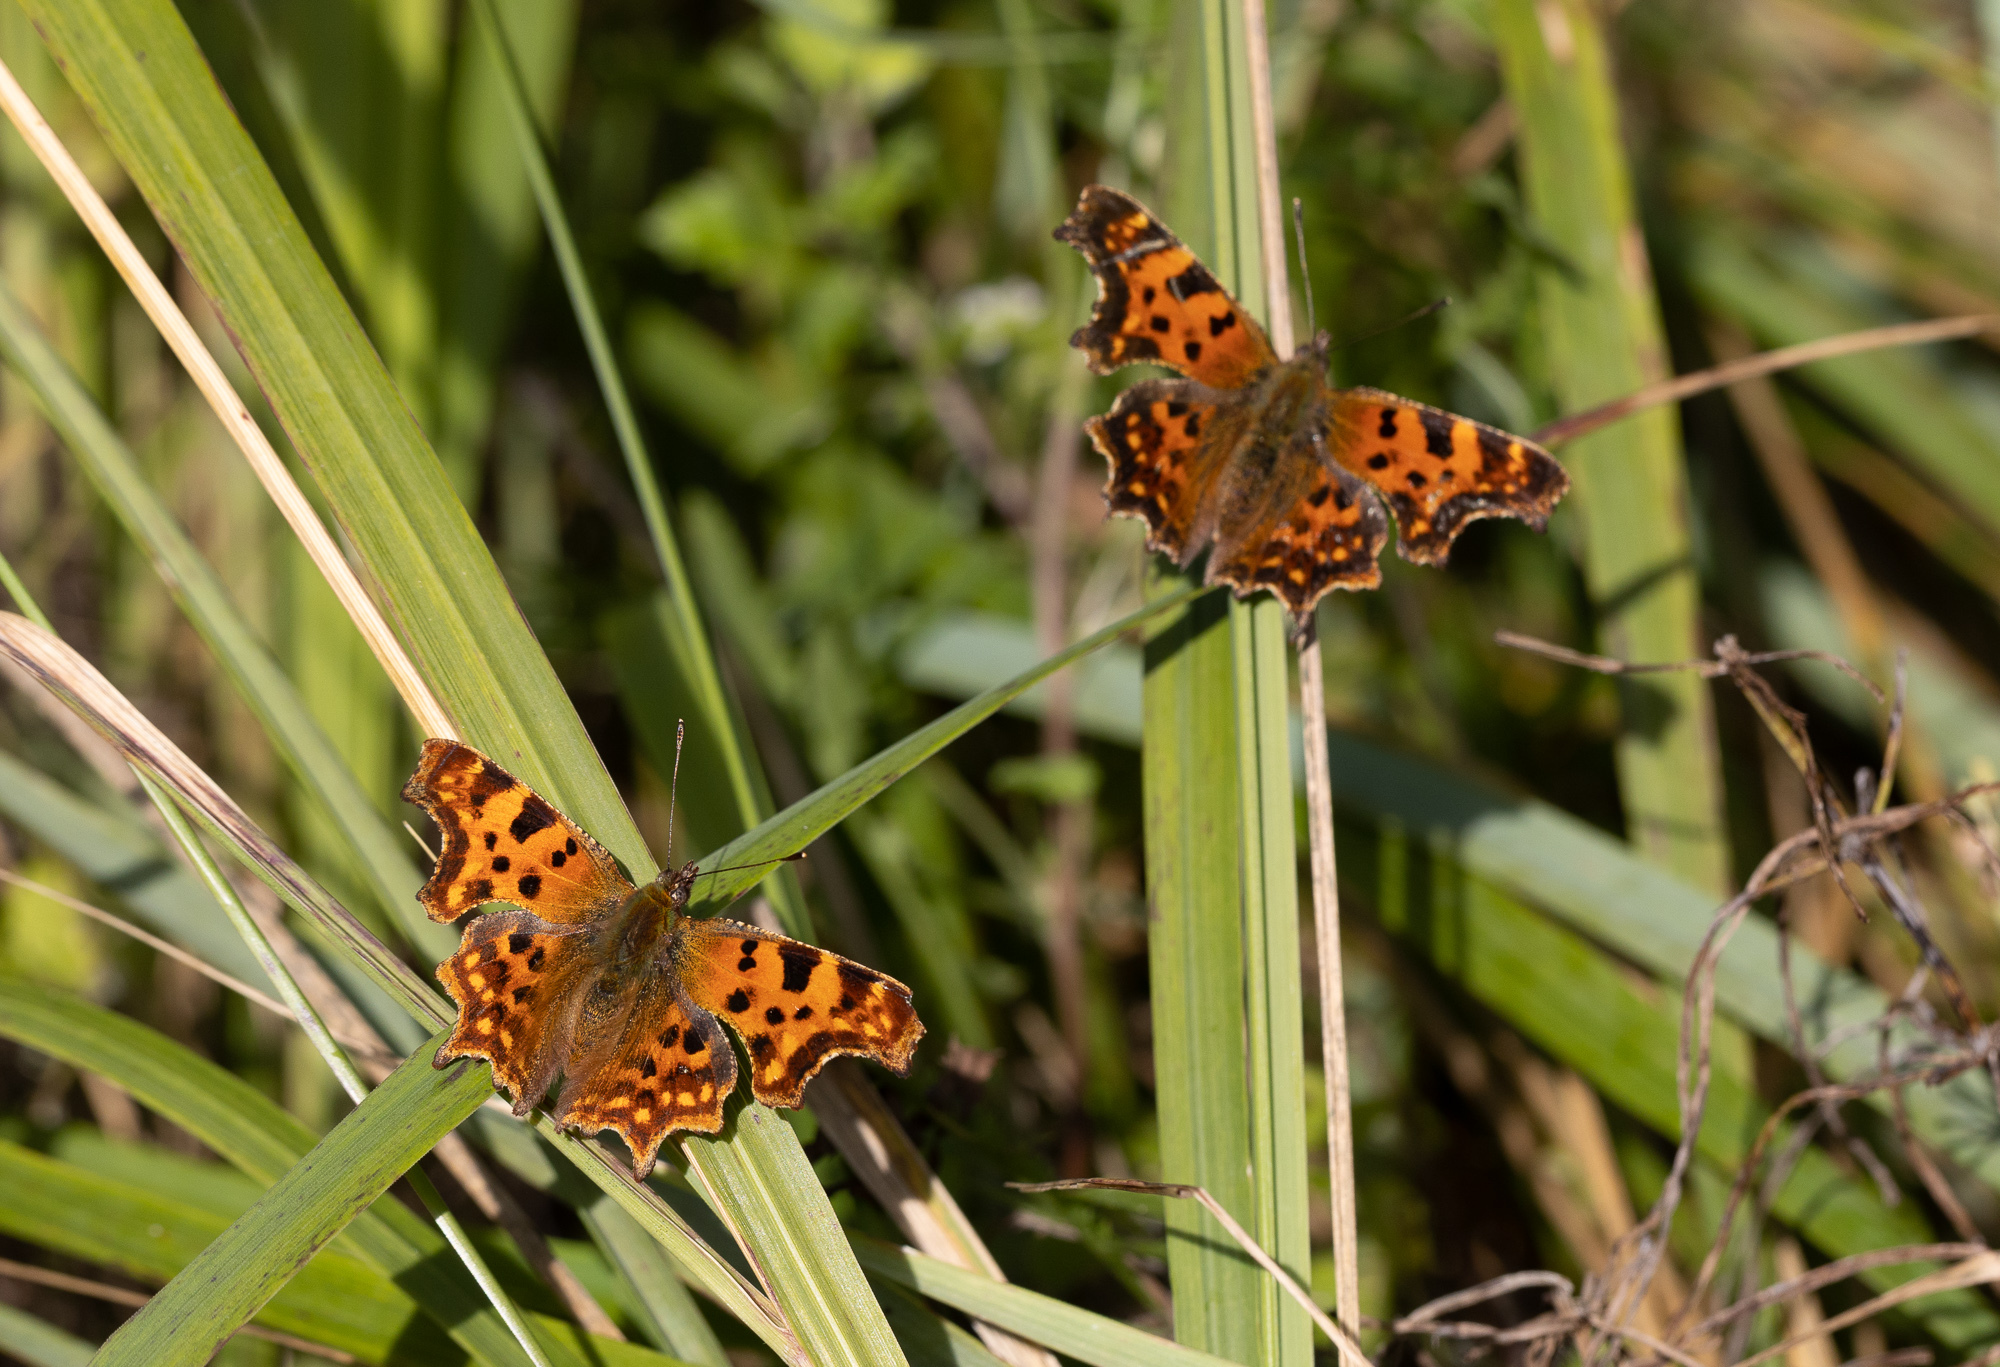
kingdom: Animalia
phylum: Arthropoda
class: Insecta
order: Lepidoptera
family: Nymphalidae
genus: Polygonia
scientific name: Polygonia c-album
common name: Comma
